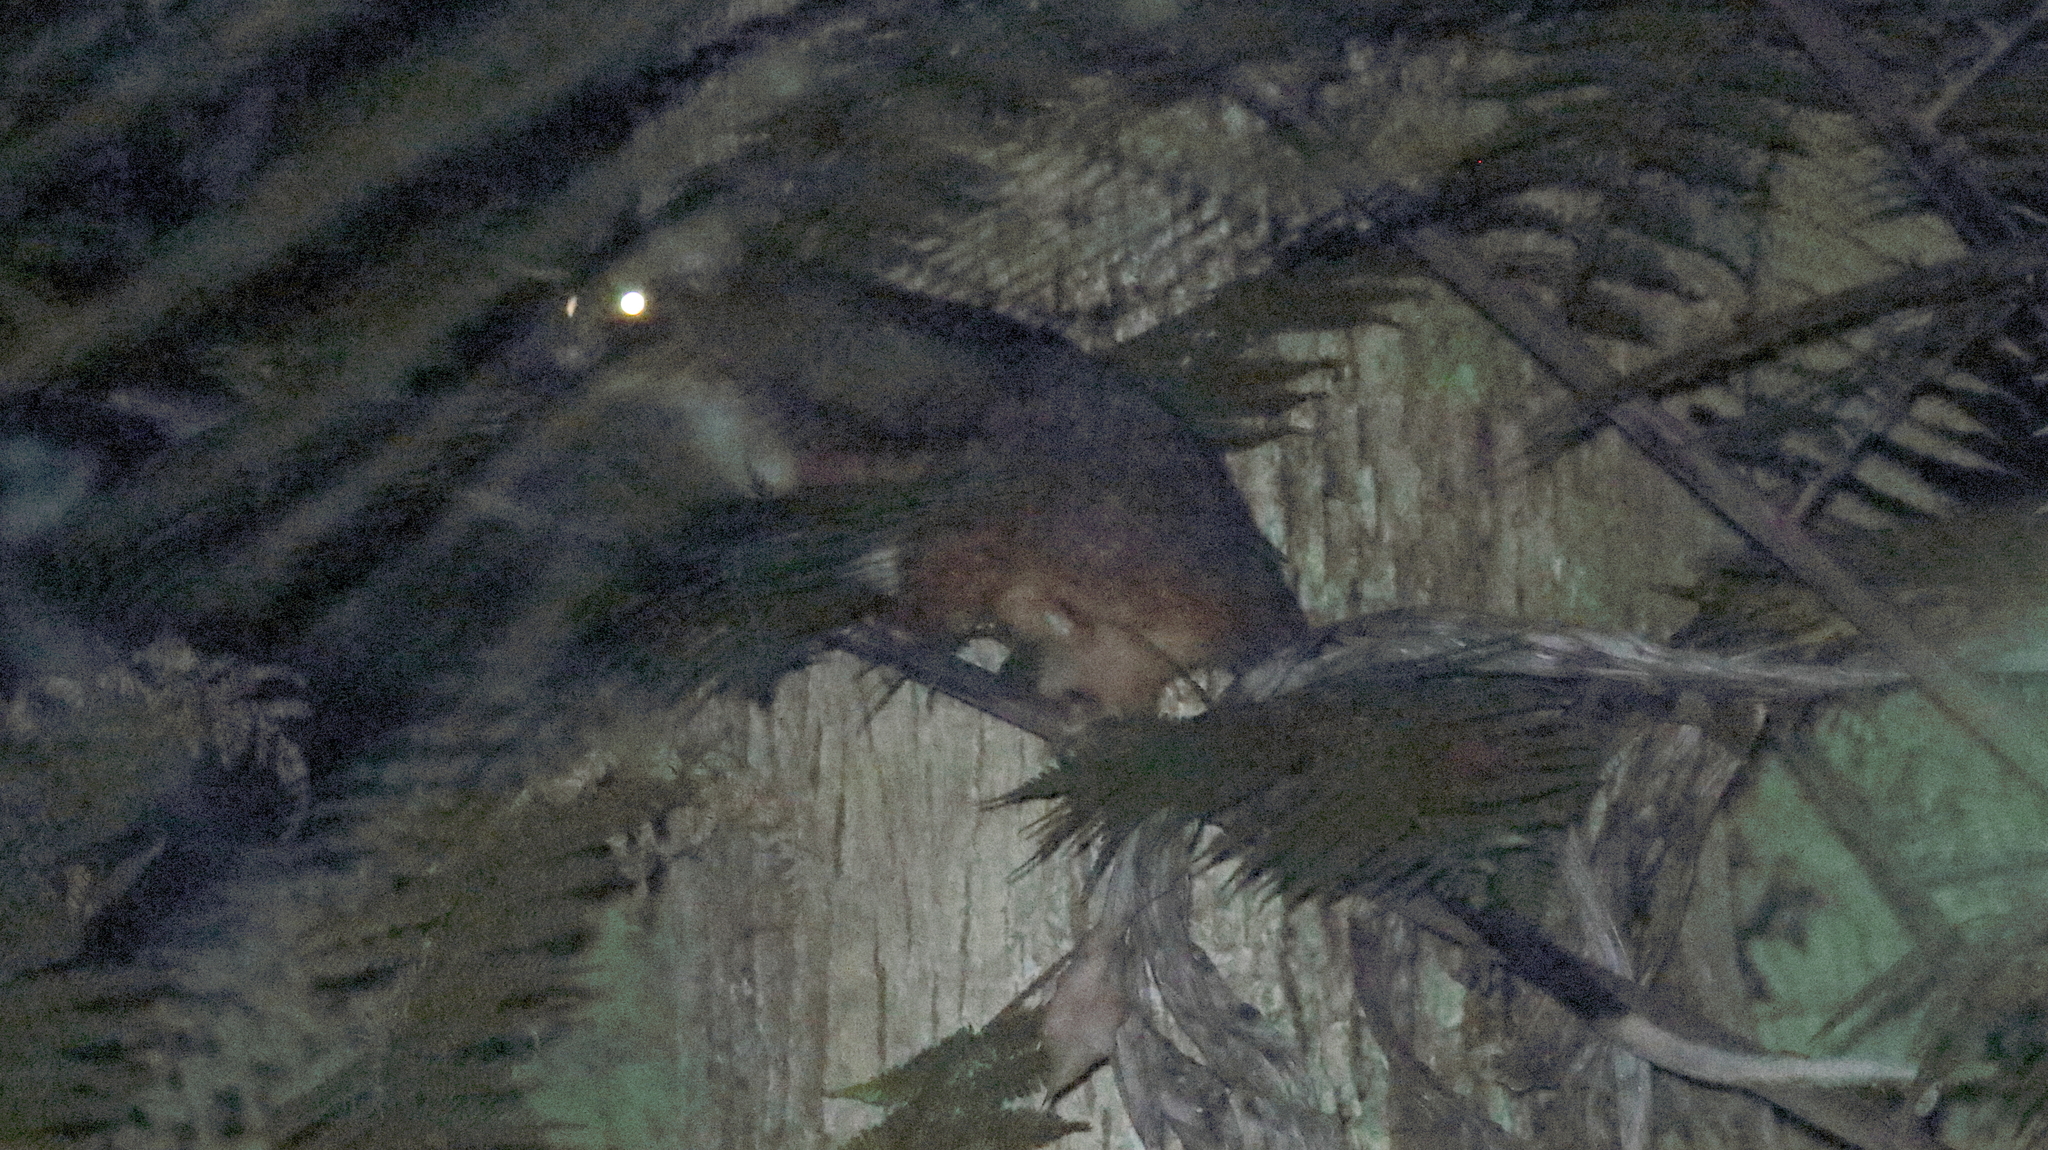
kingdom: Animalia
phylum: Chordata
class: Mammalia
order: Diprotodontia
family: Pseudocheiridae
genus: Pseudocheirus
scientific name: Pseudocheirus peregrinus
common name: Common ringtail possum
